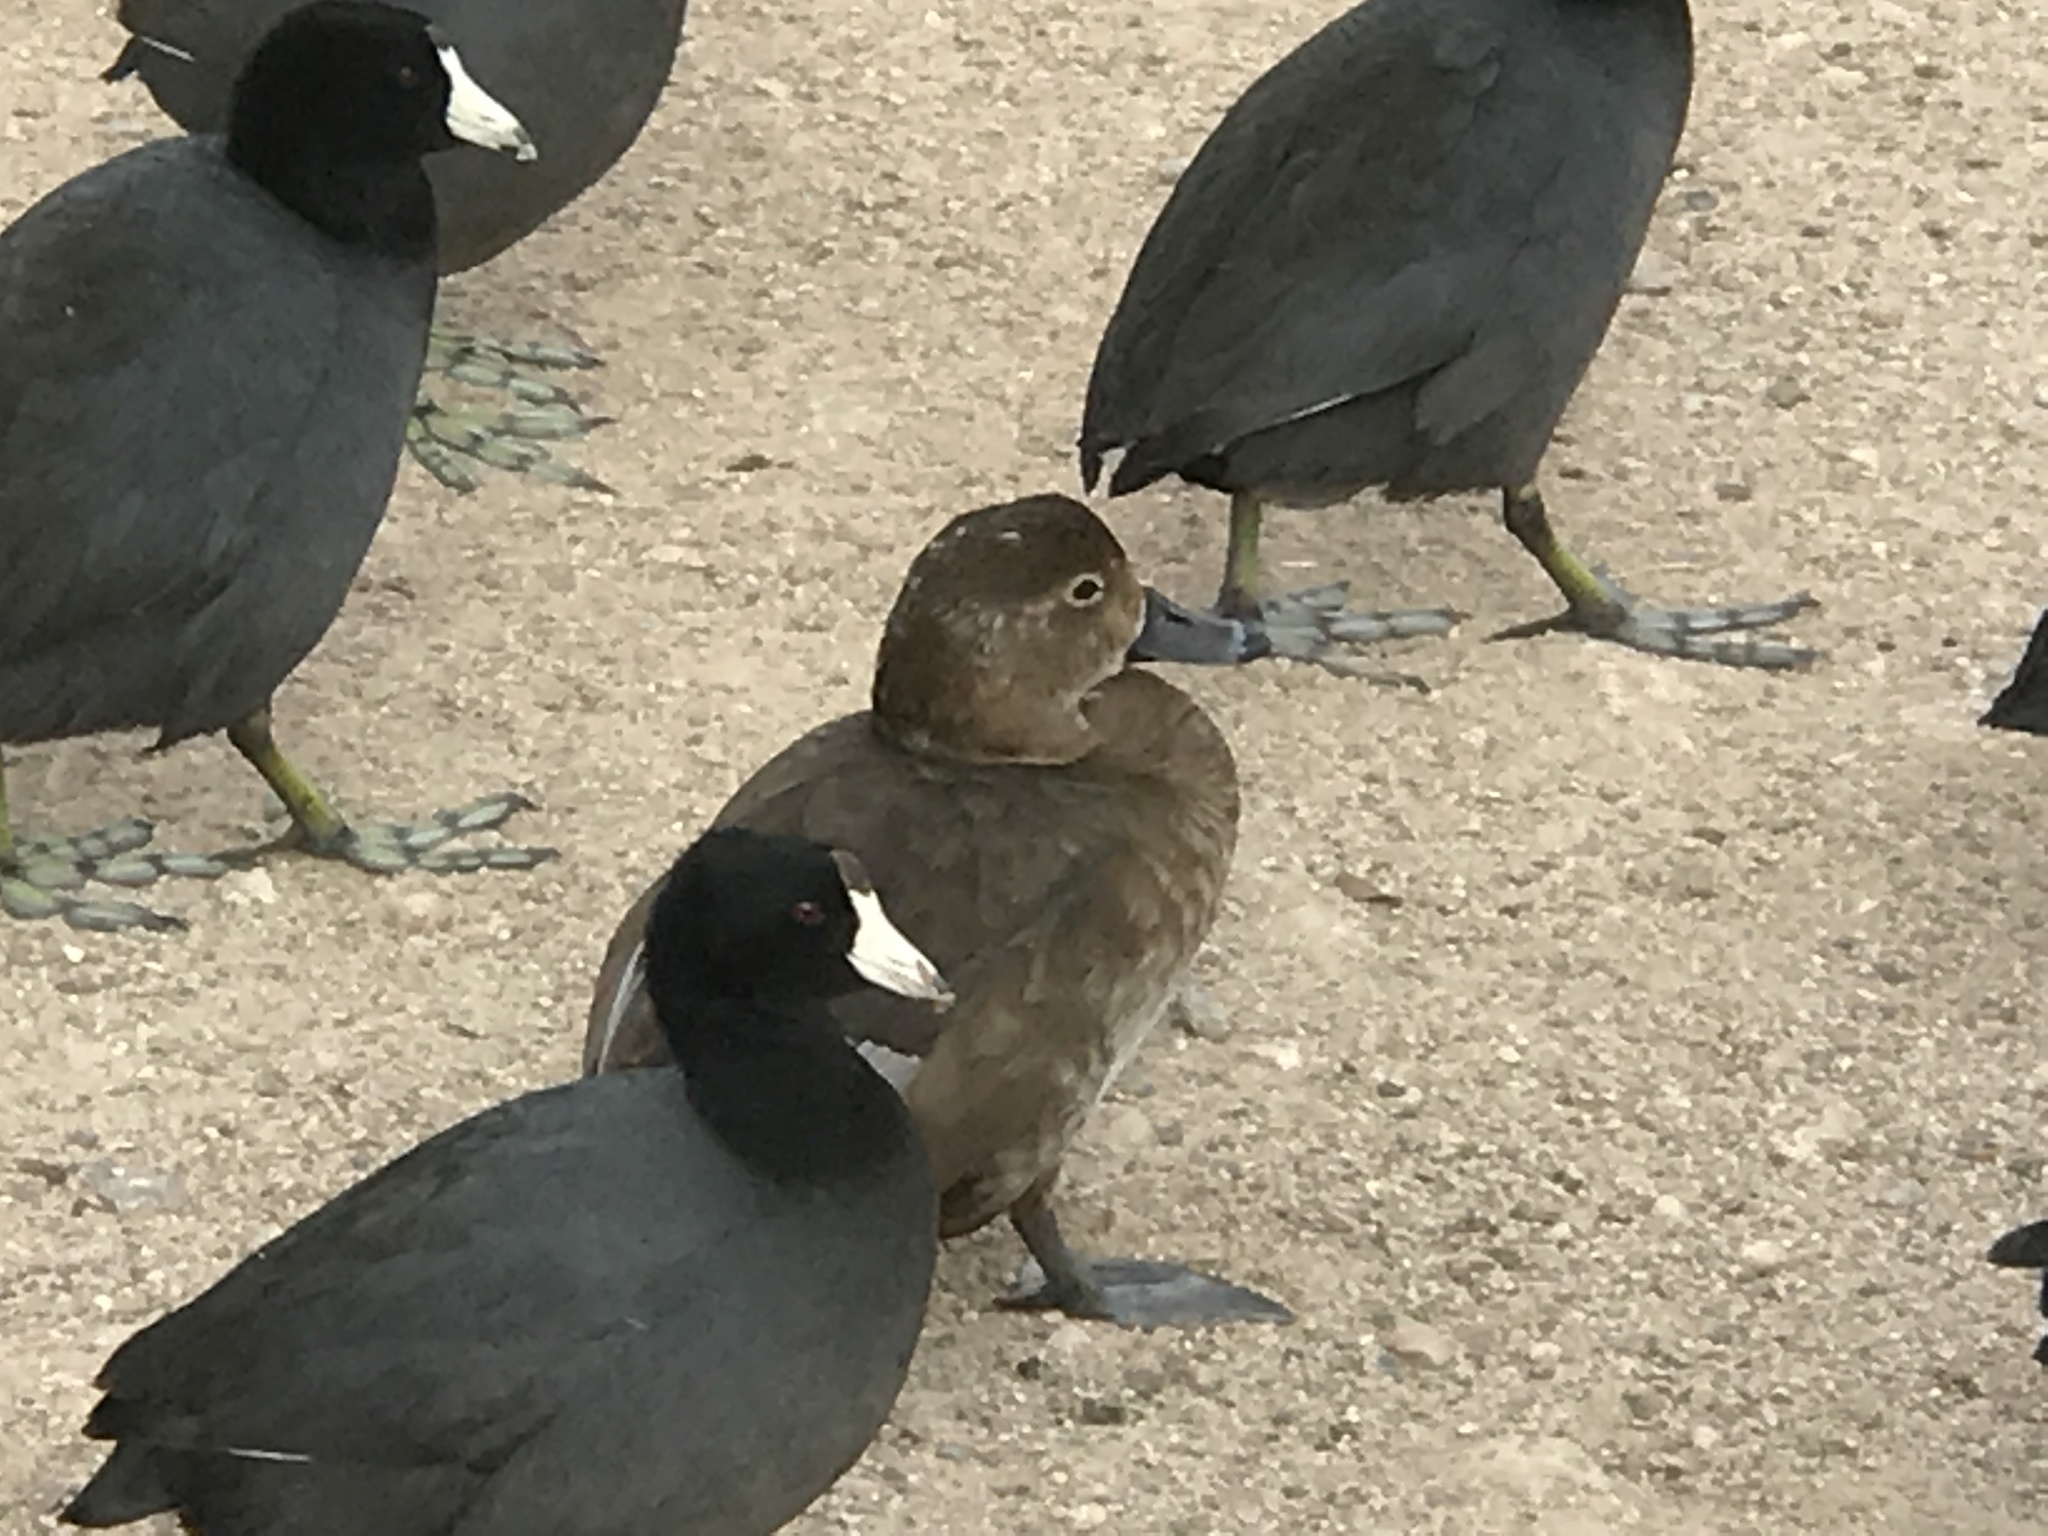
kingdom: Animalia
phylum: Chordata
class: Aves
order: Anseriformes
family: Anatidae
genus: Aythya
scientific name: Aythya americana
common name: Redhead
